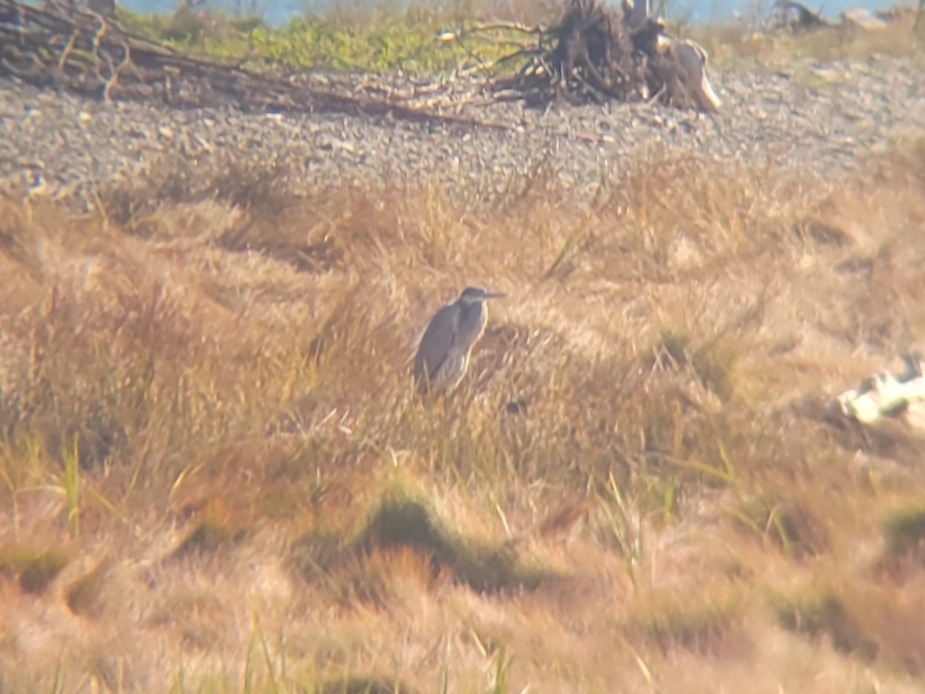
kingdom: Animalia
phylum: Chordata
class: Aves
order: Pelecaniformes
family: Ardeidae
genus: Ardea
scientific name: Ardea herodias
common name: Great blue heron
